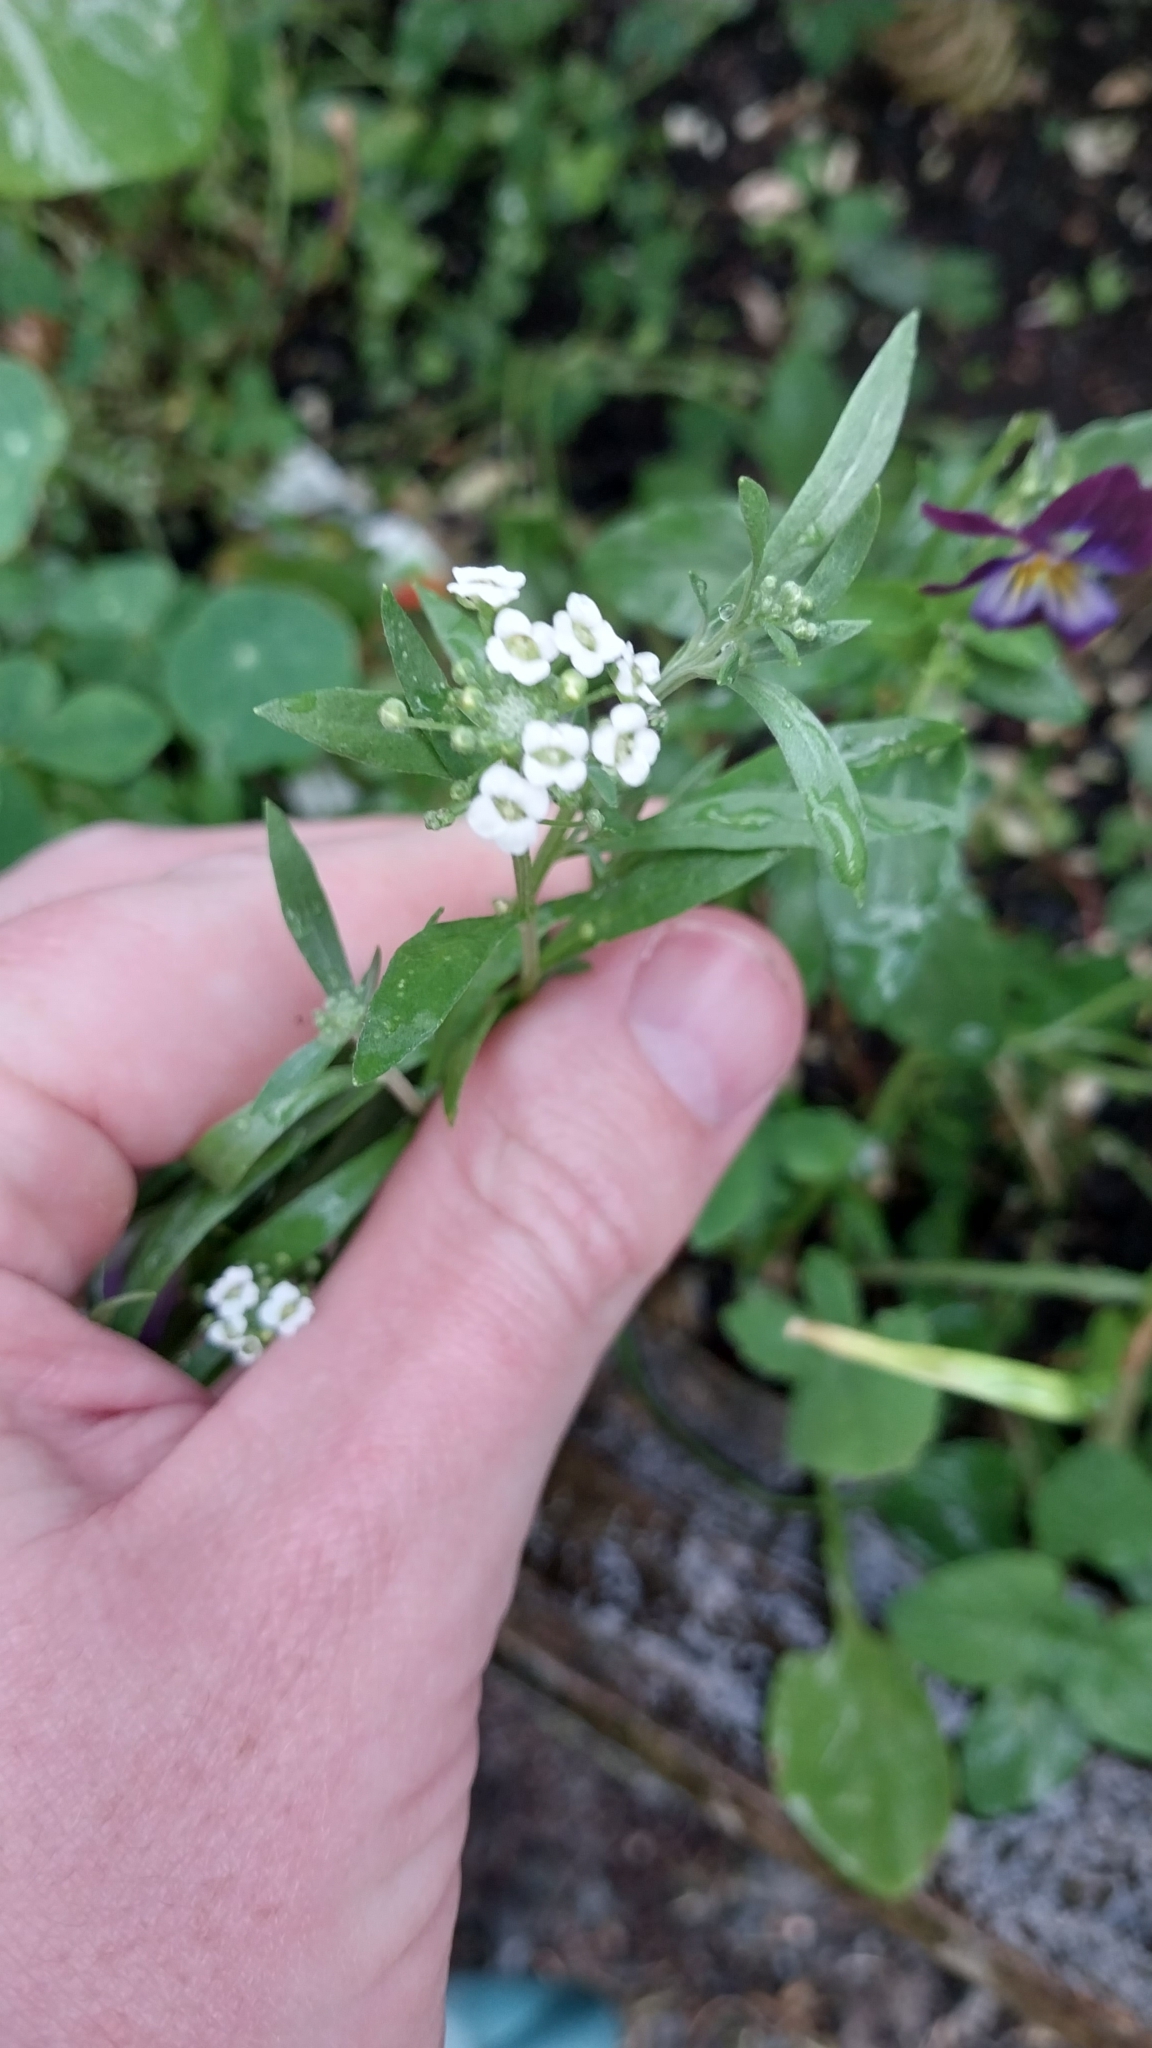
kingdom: Plantae
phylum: Tracheophyta
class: Magnoliopsida
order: Brassicales
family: Brassicaceae
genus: Lobularia
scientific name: Lobularia maritima
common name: Sweet alison
